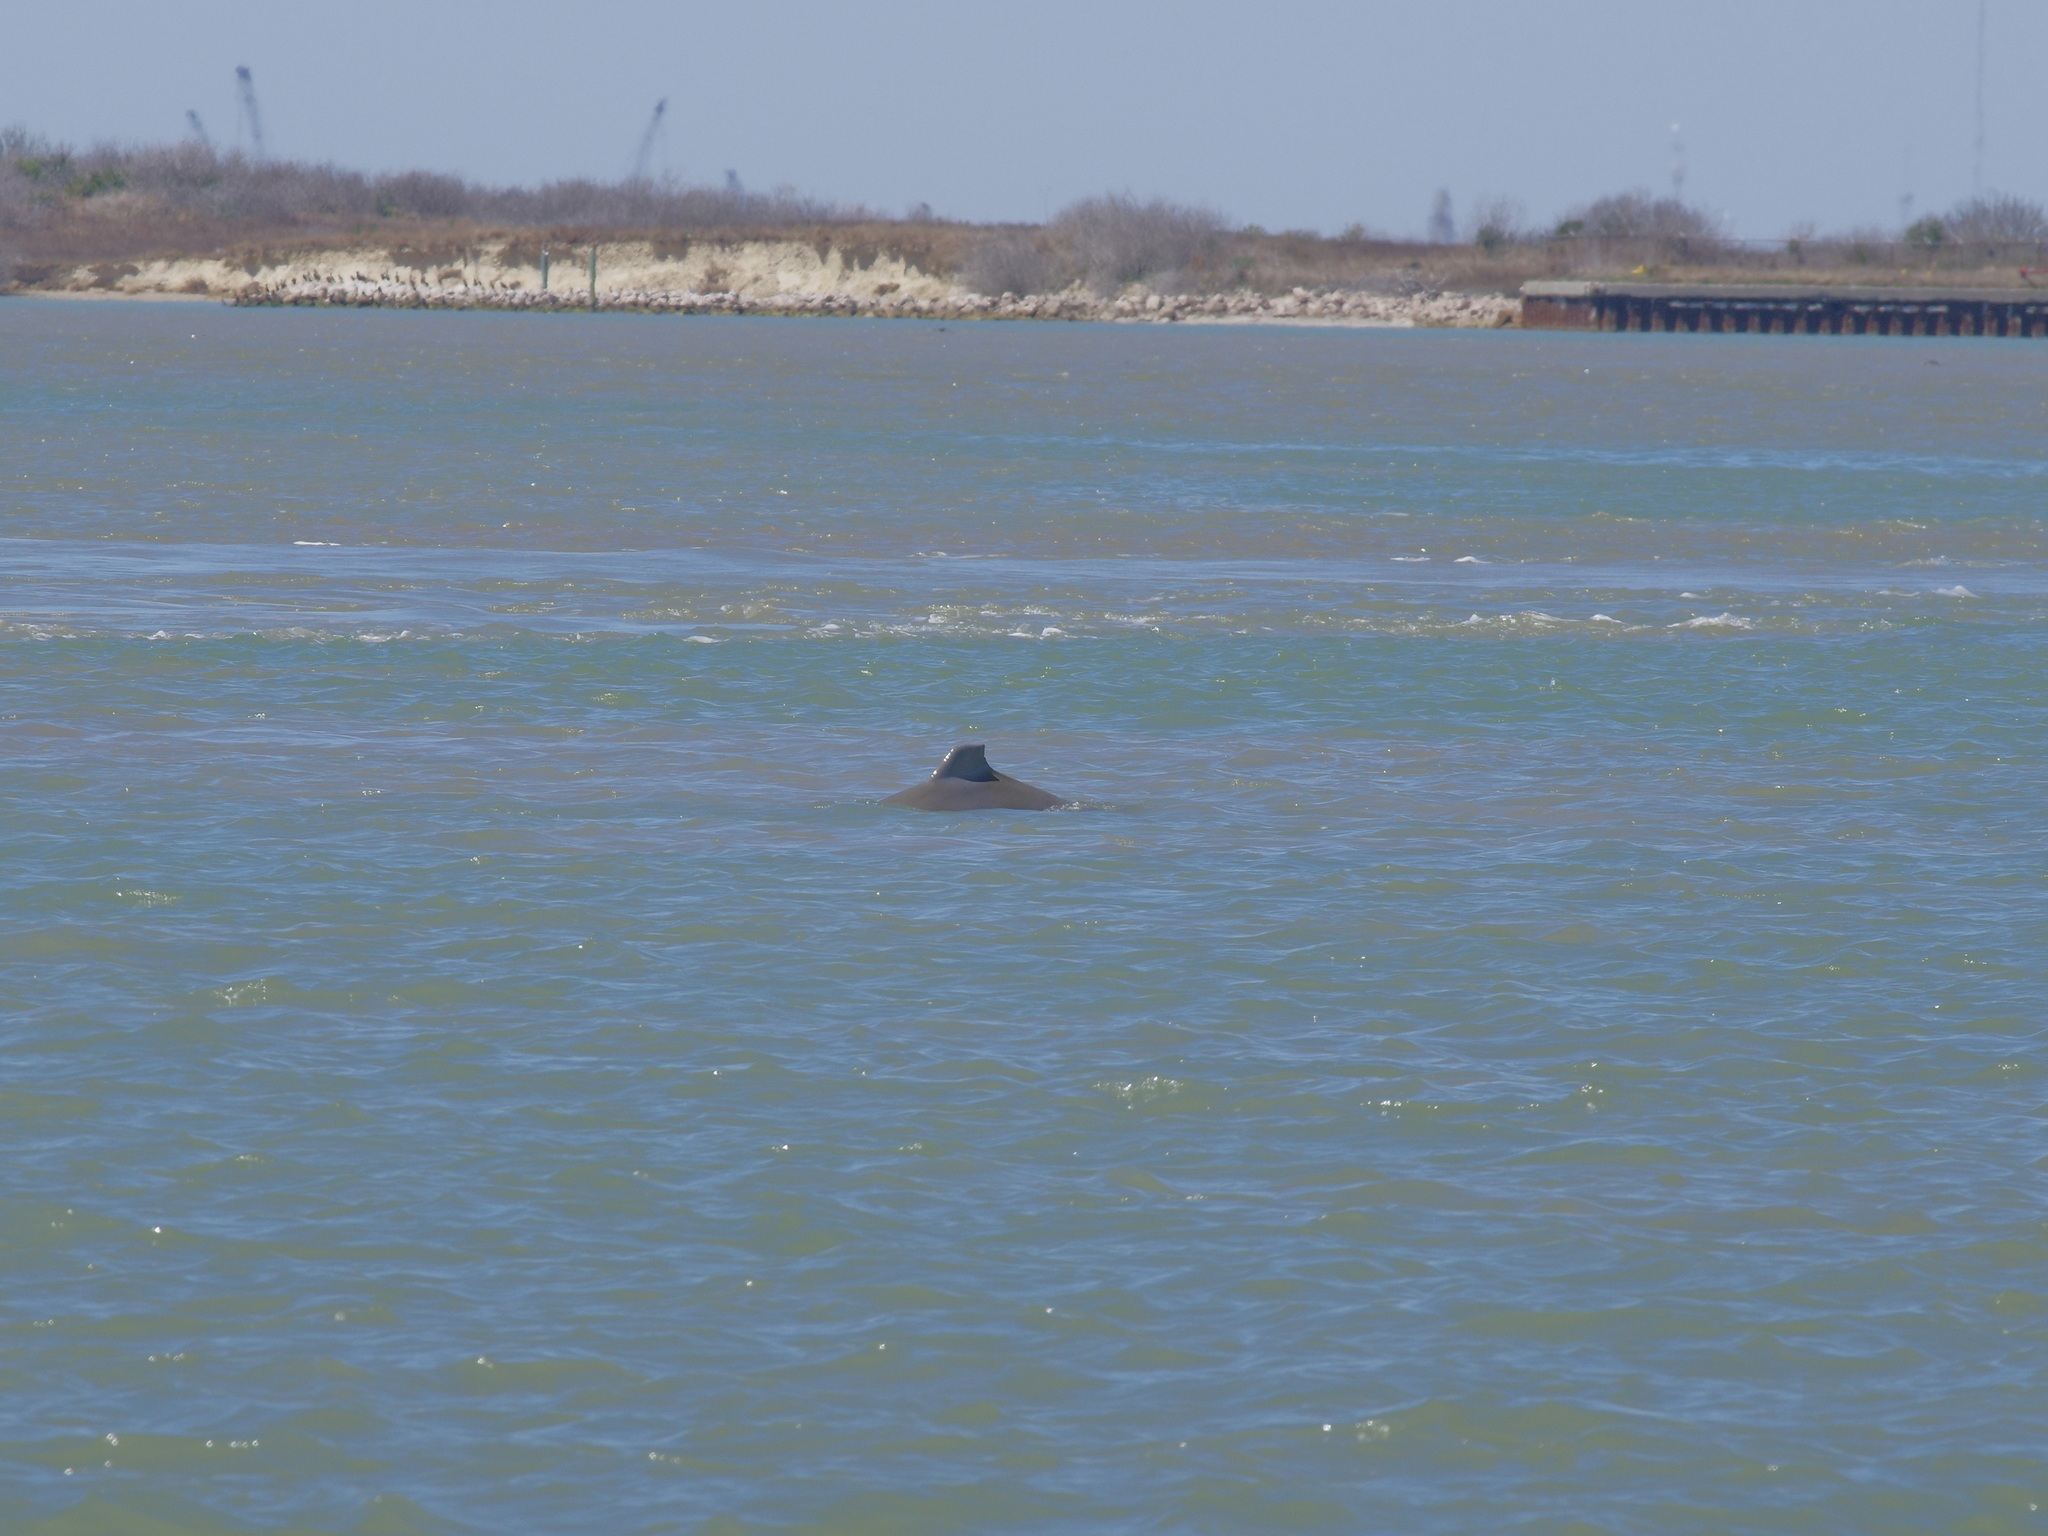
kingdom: Animalia
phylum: Chordata
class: Mammalia
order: Cetacea
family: Delphinidae
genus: Tursiops
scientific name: Tursiops truncatus
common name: Bottlenose dolphin
